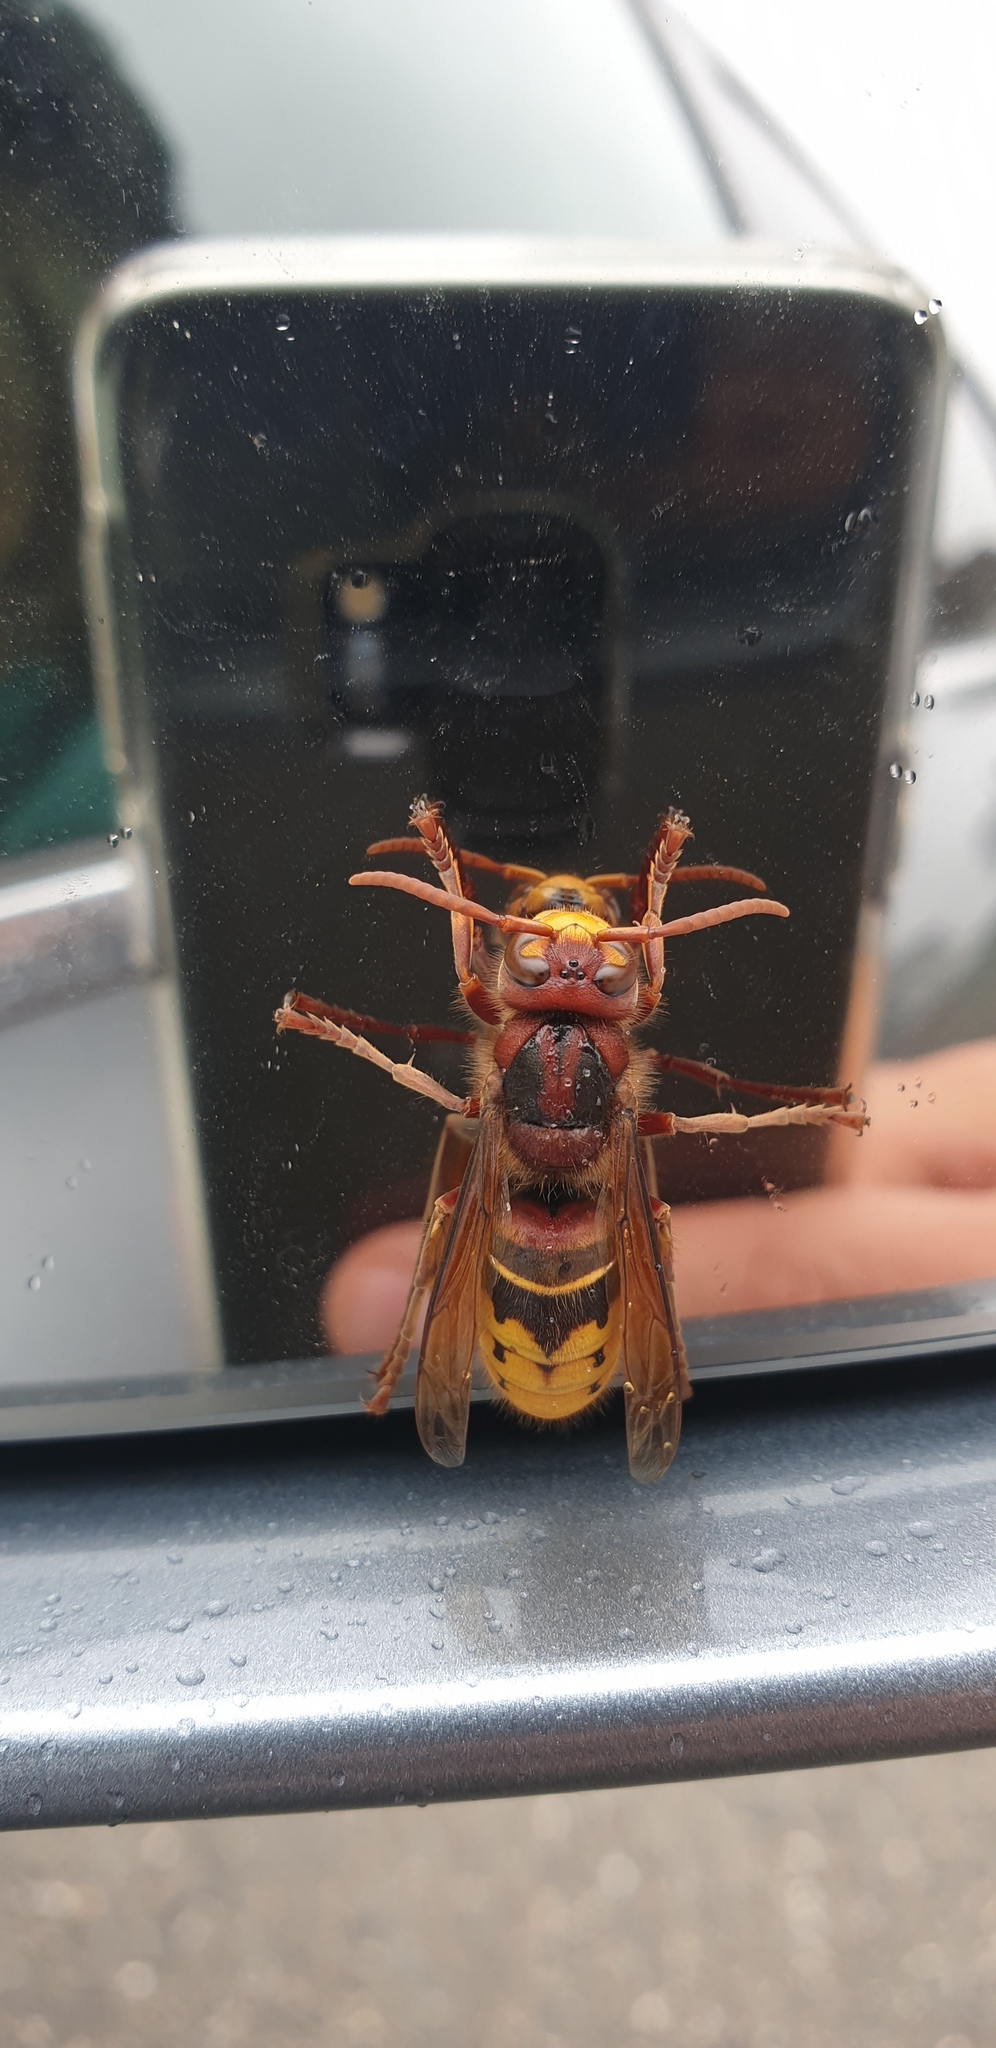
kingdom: Animalia
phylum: Arthropoda
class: Insecta
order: Hymenoptera
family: Vespidae
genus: Vespa
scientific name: Vespa crabro
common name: Hornet
